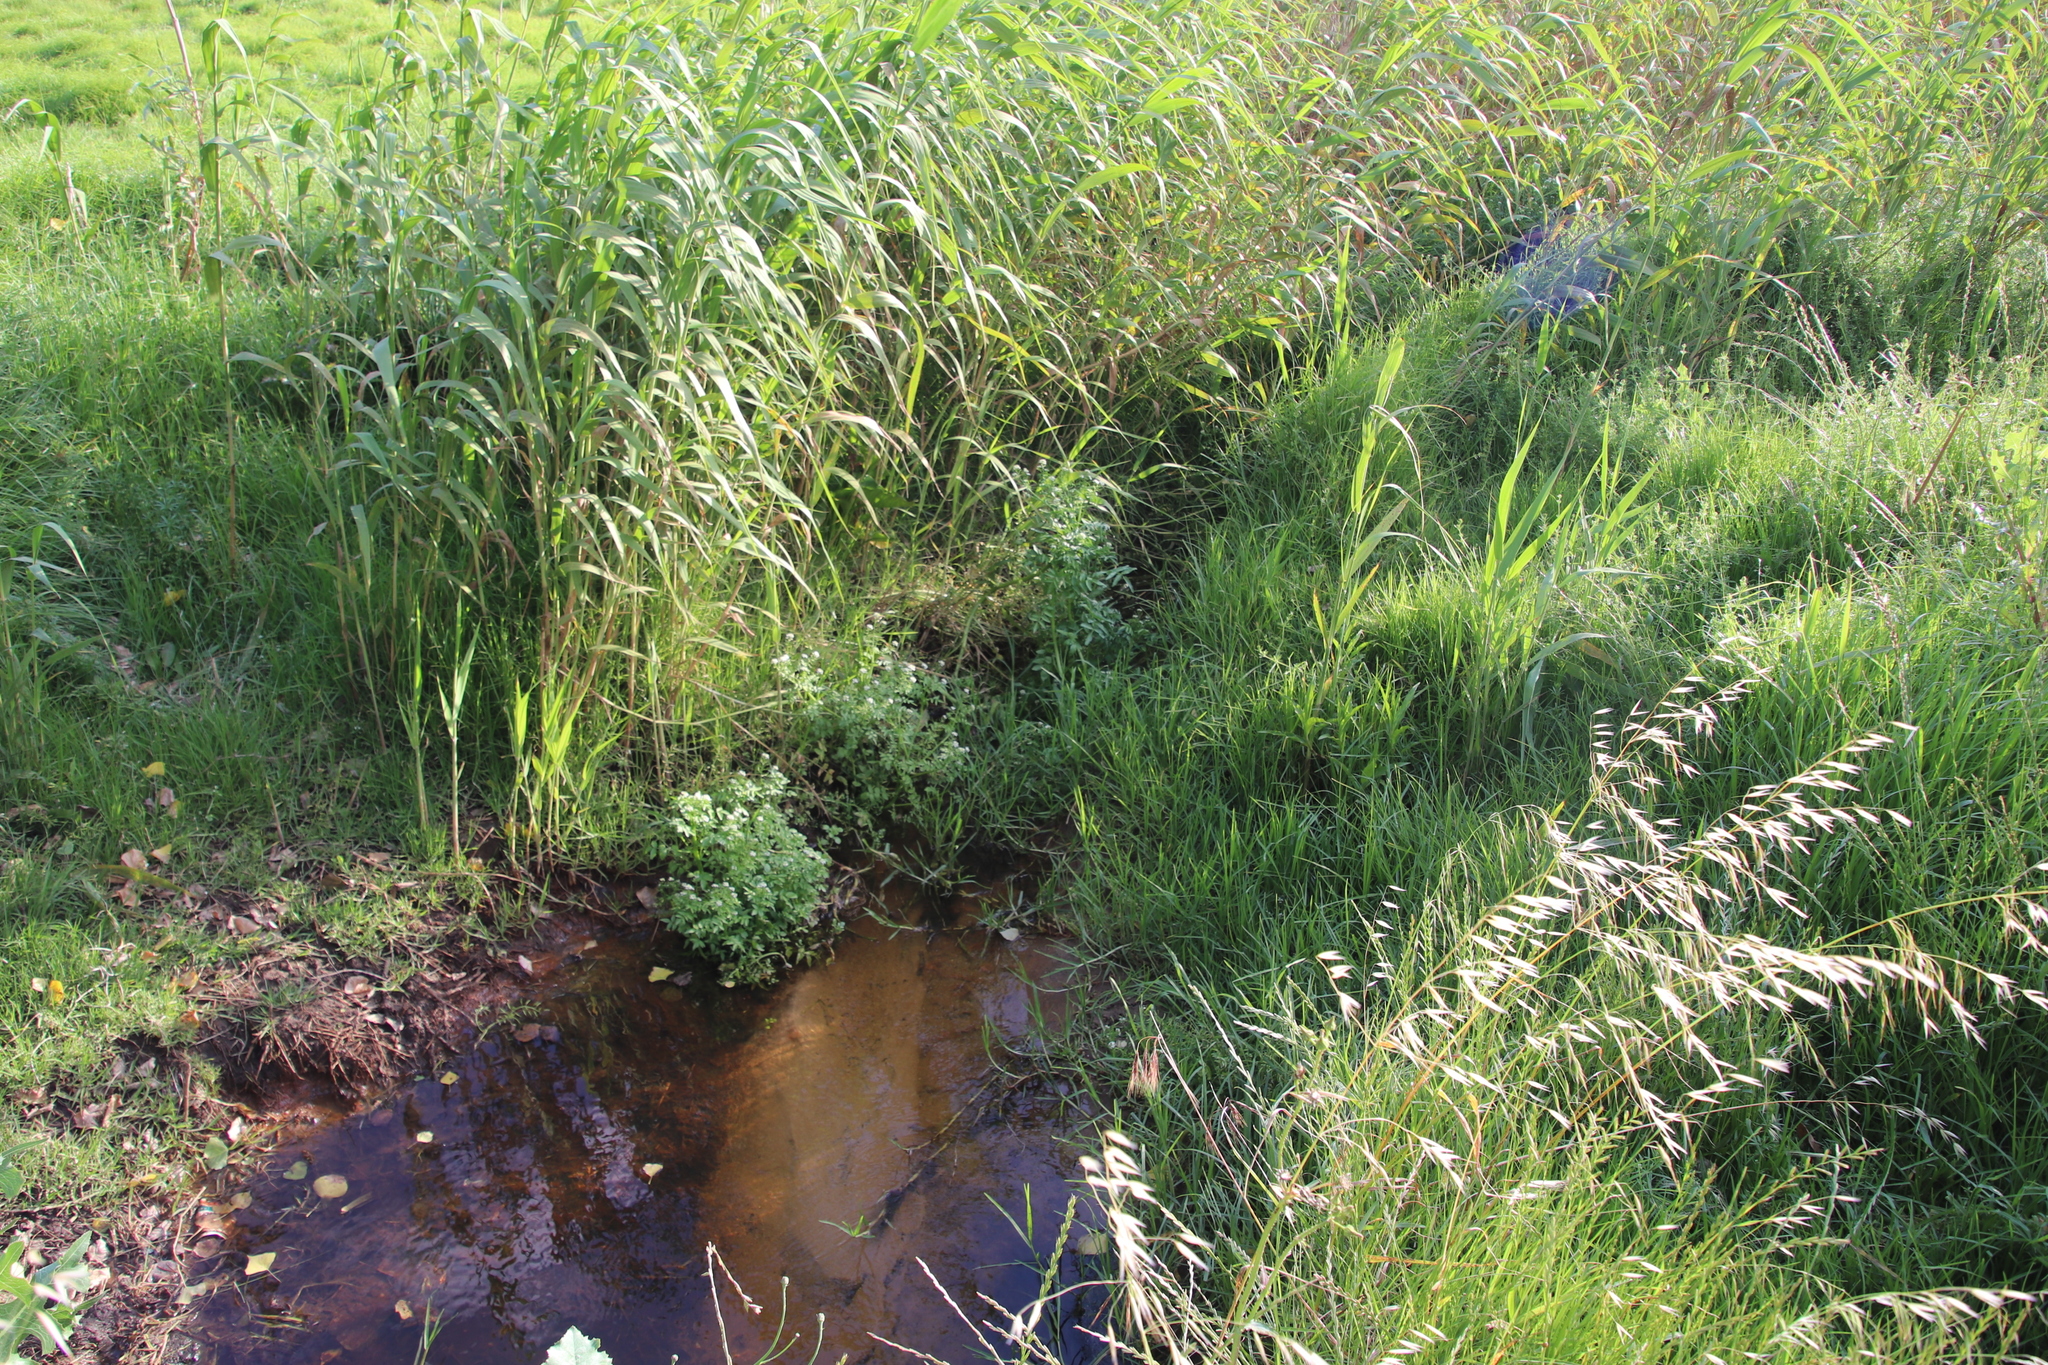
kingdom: Plantae
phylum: Tracheophyta
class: Magnoliopsida
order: Brassicales
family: Brassicaceae
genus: Nasturtium
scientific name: Nasturtium officinale
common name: Watercress
